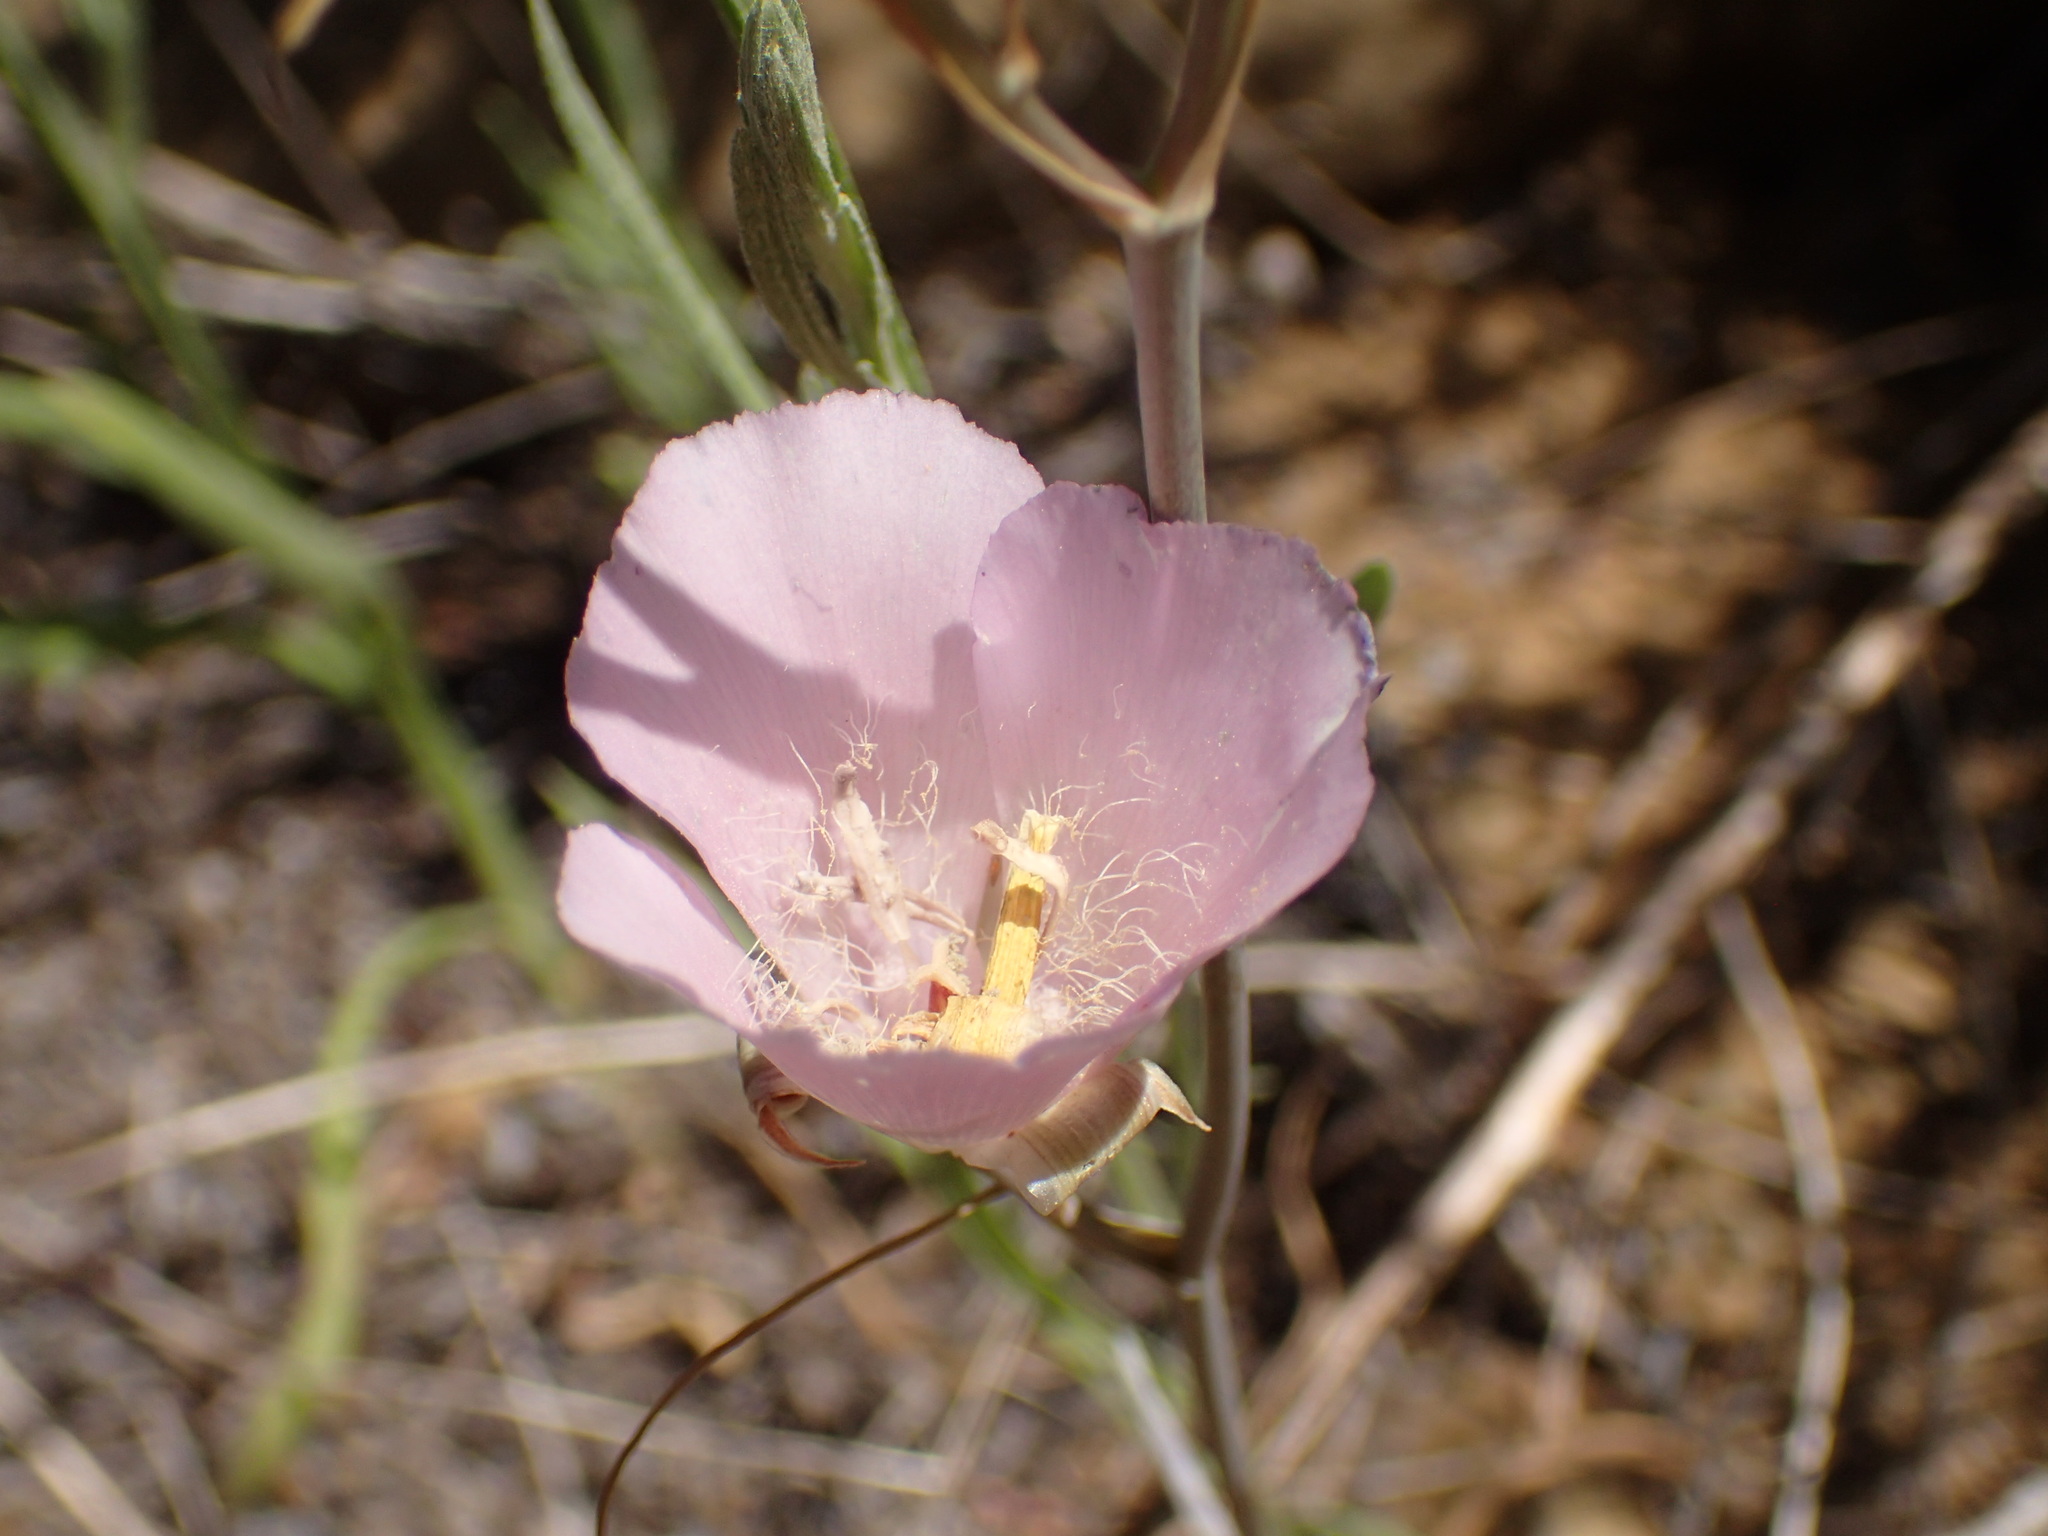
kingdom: Plantae
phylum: Tracheophyta
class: Liliopsida
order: Liliales
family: Liliaceae
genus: Calochortus
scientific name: Calochortus splendens
